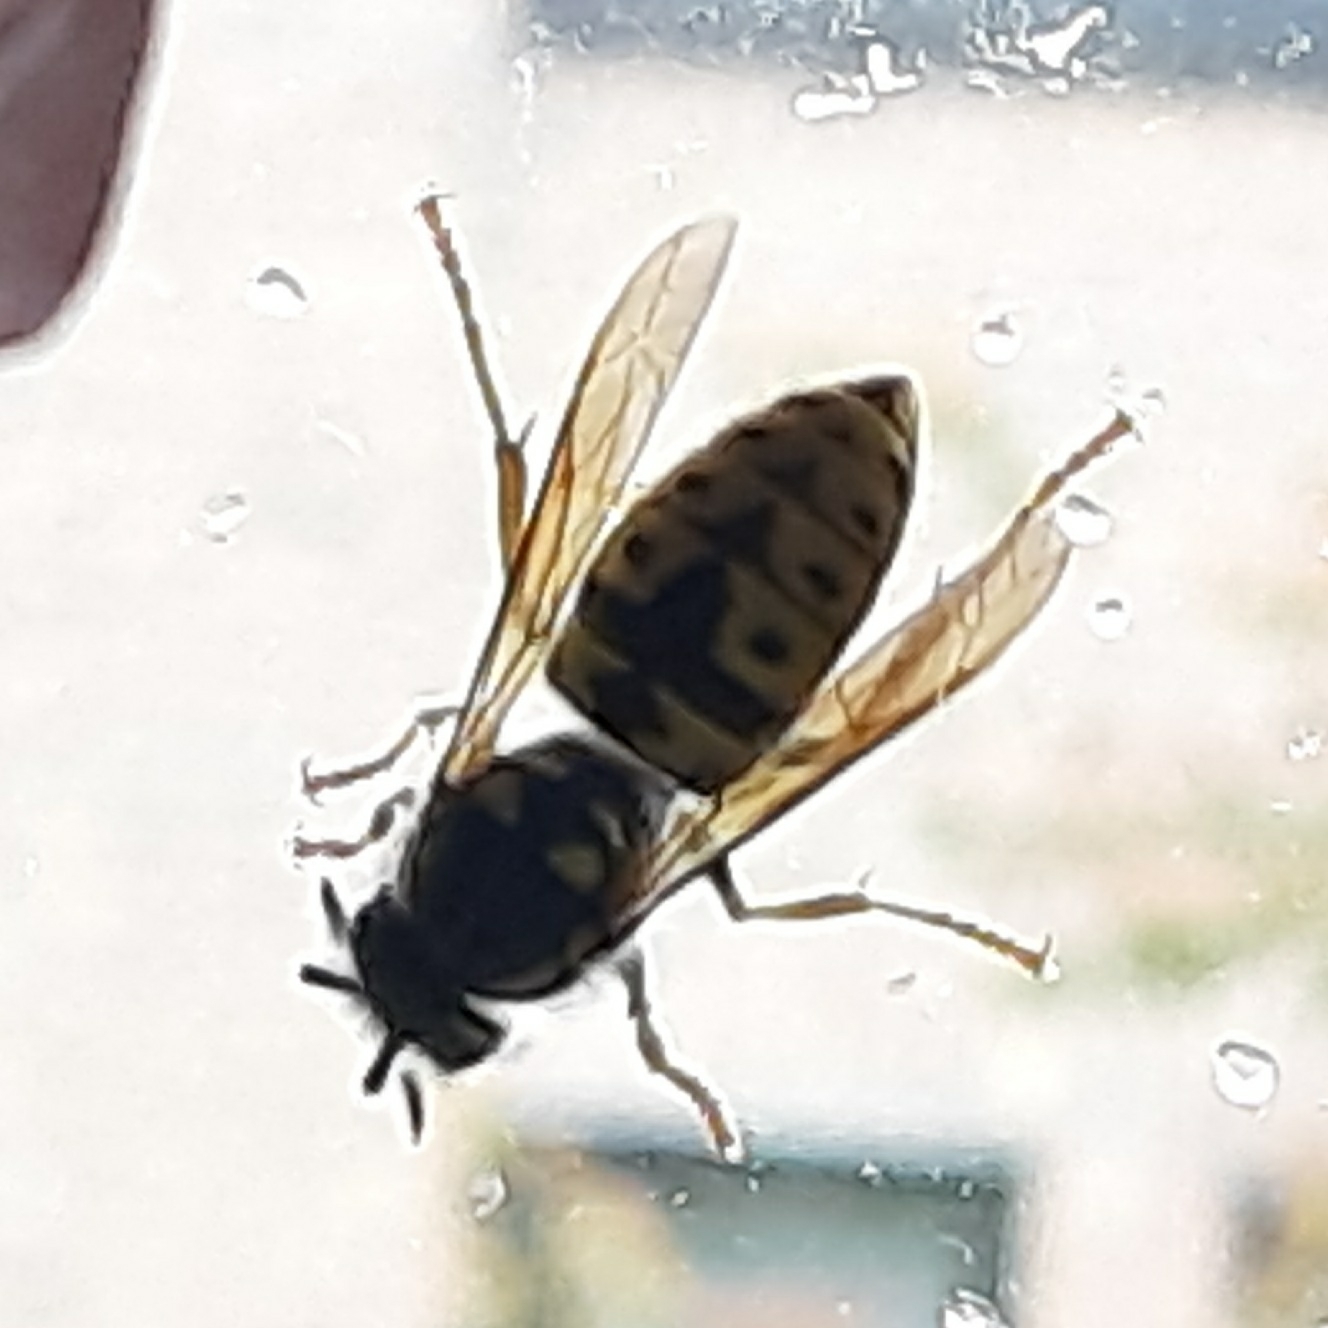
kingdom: Animalia
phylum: Arthropoda
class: Insecta
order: Hymenoptera
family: Vespidae
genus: Vespula
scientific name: Vespula germanica
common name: German wasp
